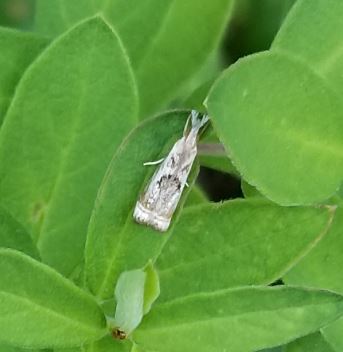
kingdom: Animalia
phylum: Arthropoda
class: Insecta
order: Lepidoptera
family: Crambidae
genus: Microcrambus
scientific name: Microcrambus elegans
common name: Elegant grass-veneer
